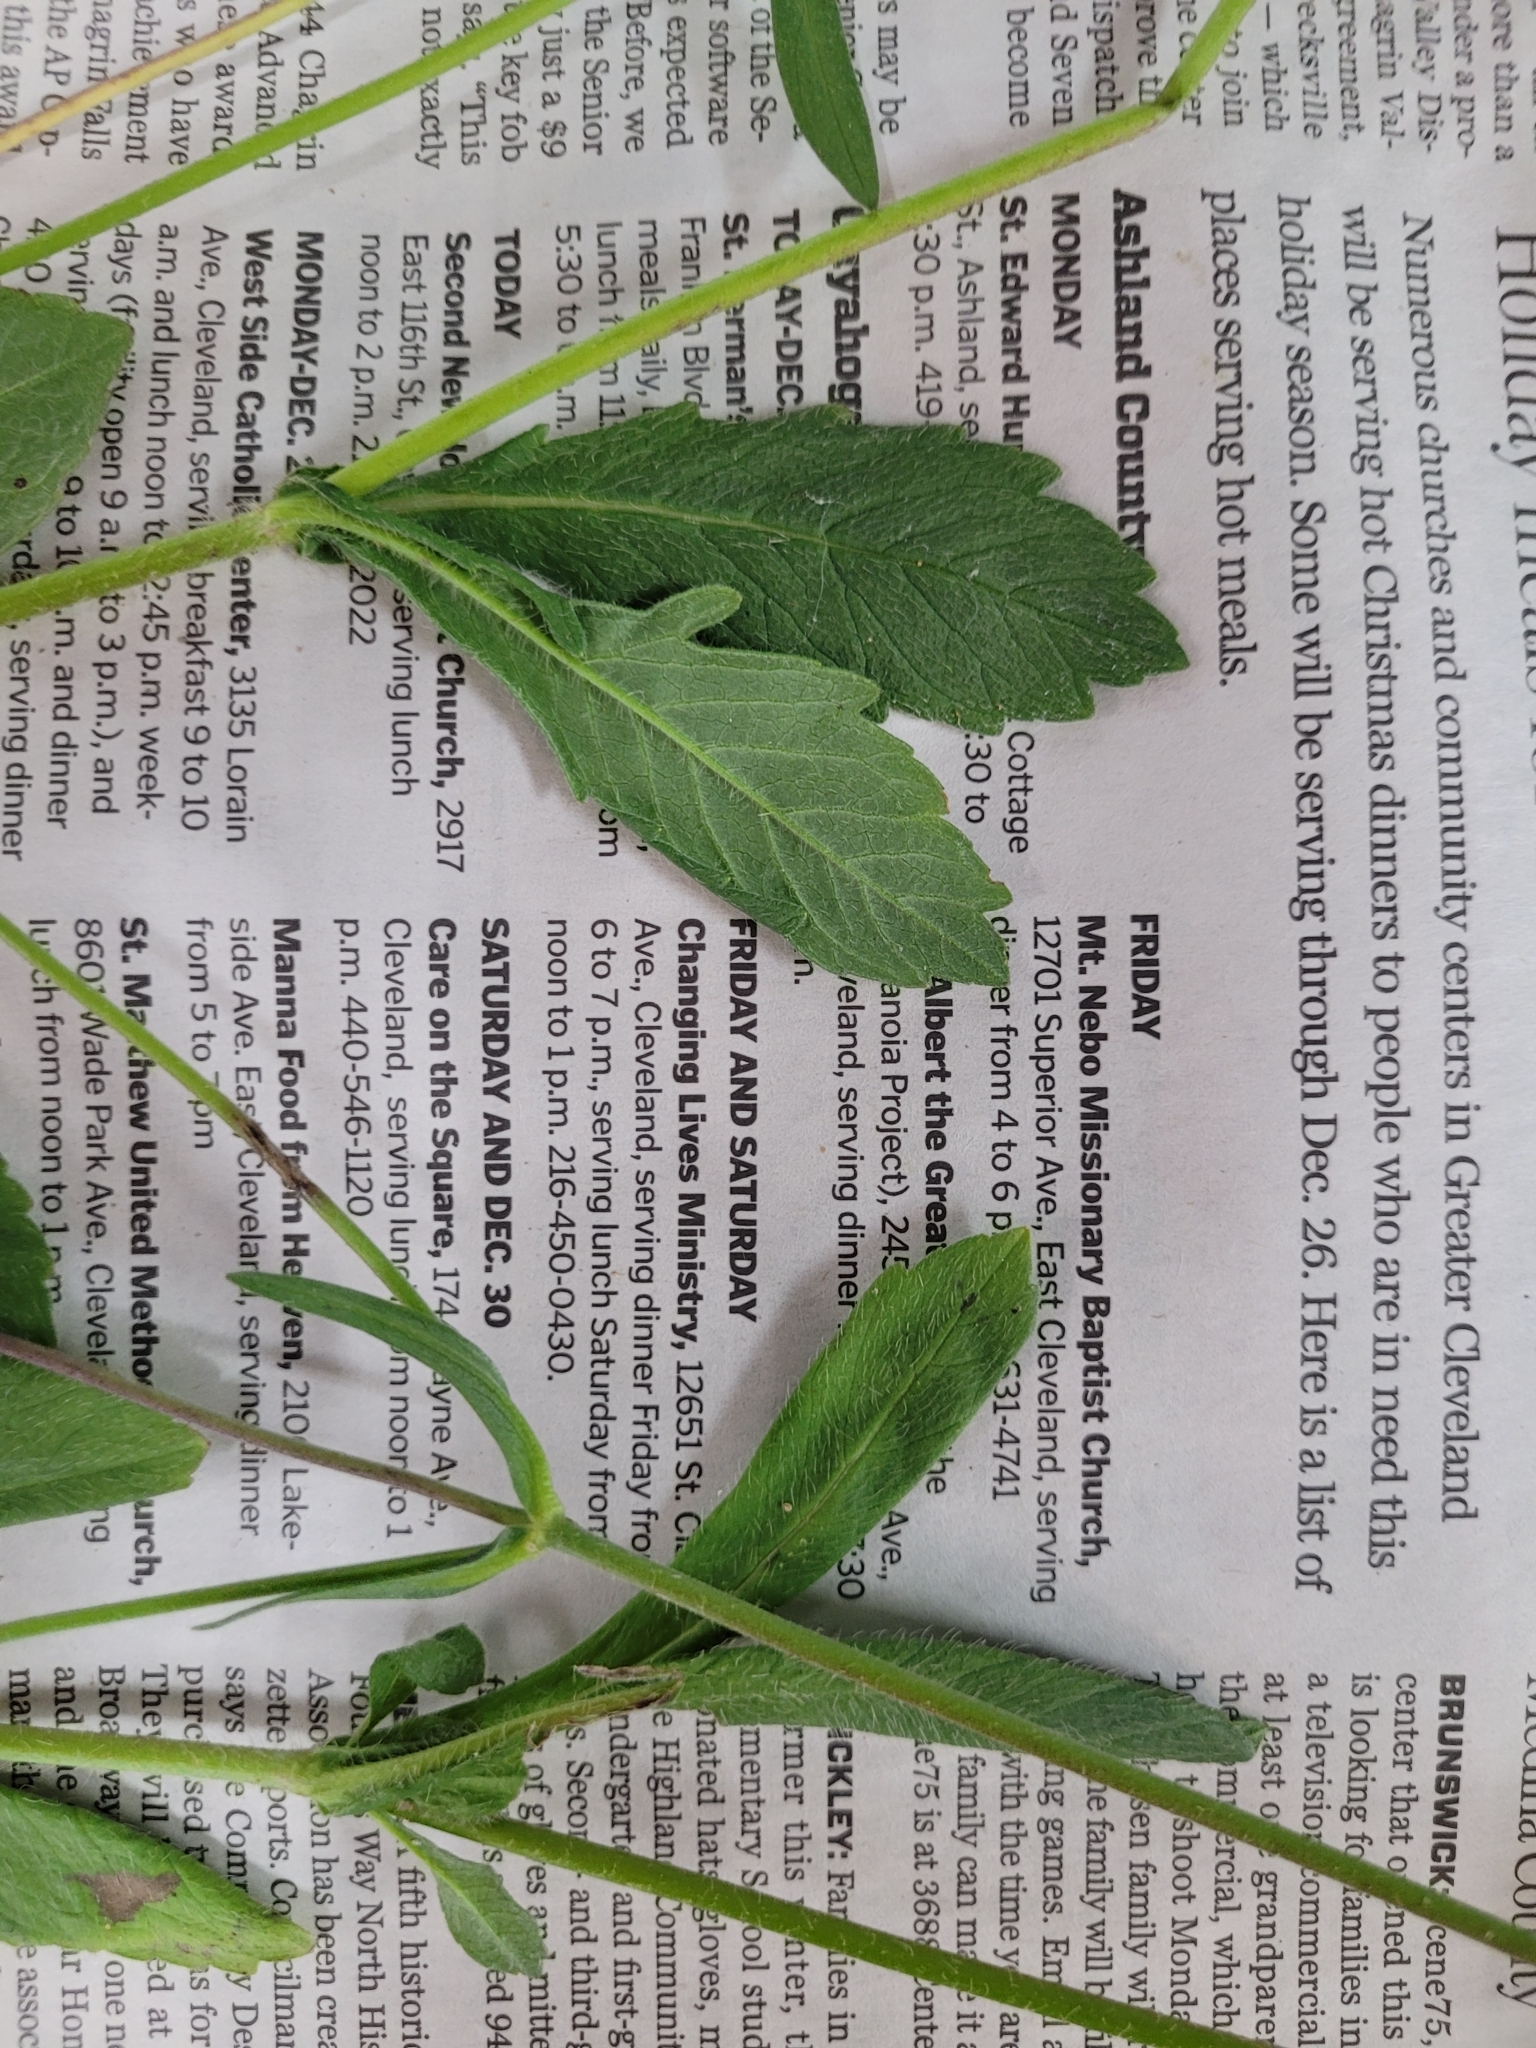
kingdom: Plantae
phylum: Tracheophyta
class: Magnoliopsida
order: Dipsacales
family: Caprifoliaceae
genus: Knautia
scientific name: Knautia arvensis
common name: Field scabiosa
